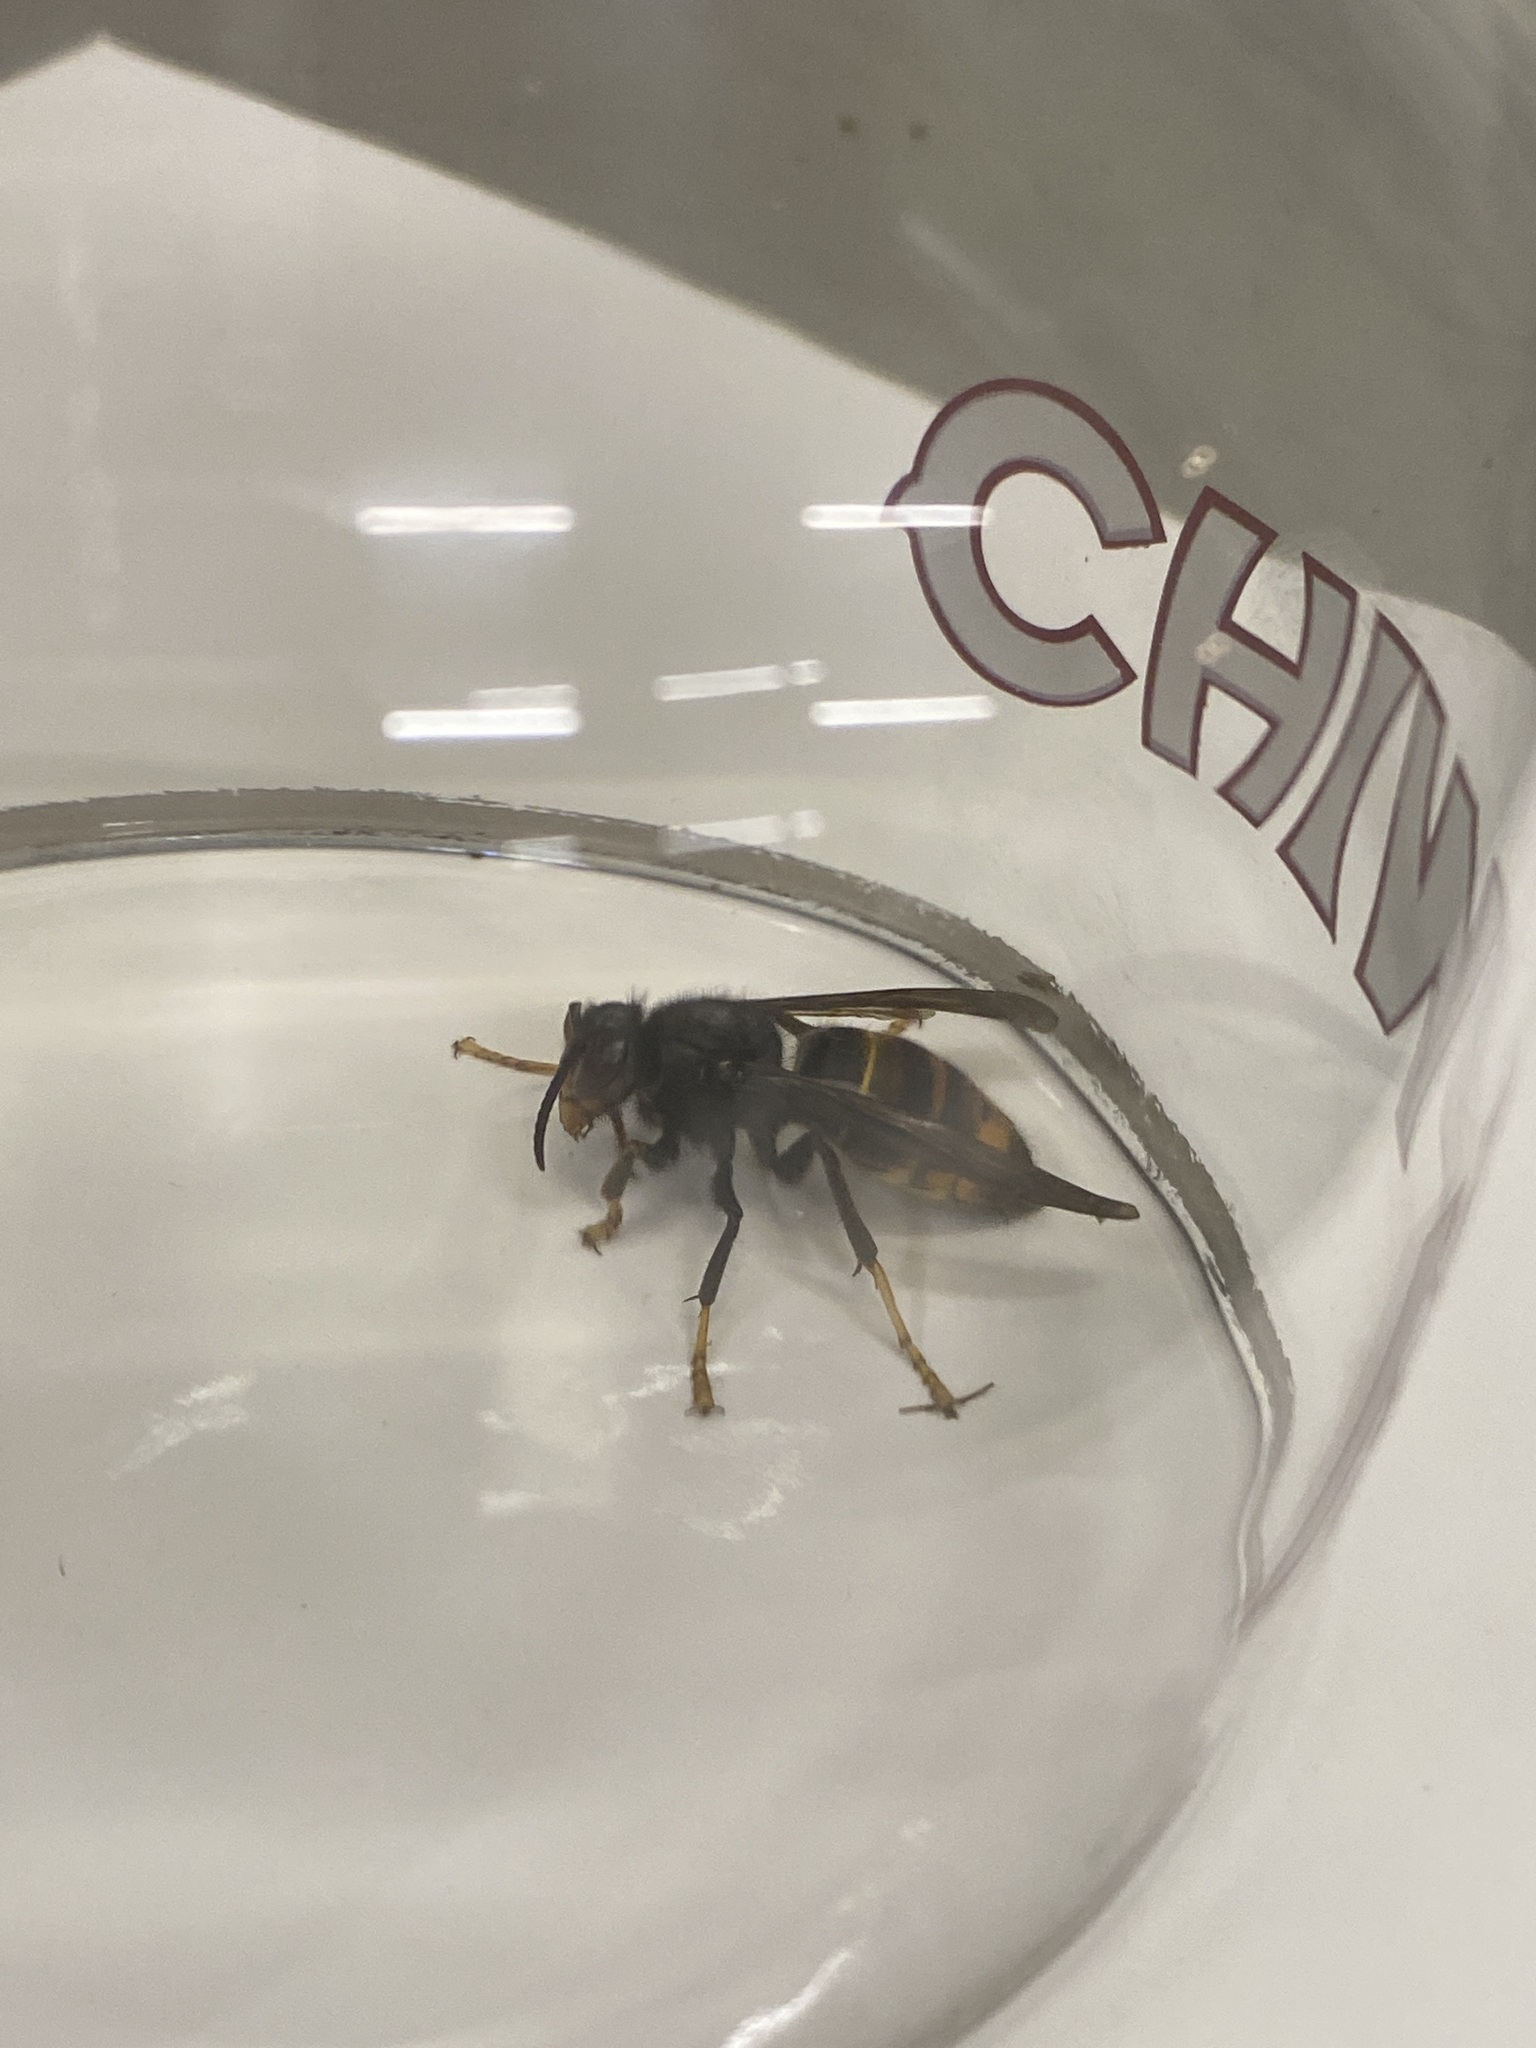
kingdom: Animalia
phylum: Arthropoda
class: Insecta
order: Hymenoptera
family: Vespidae
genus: Vespa
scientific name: Vespa velutina
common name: Asian hornet
